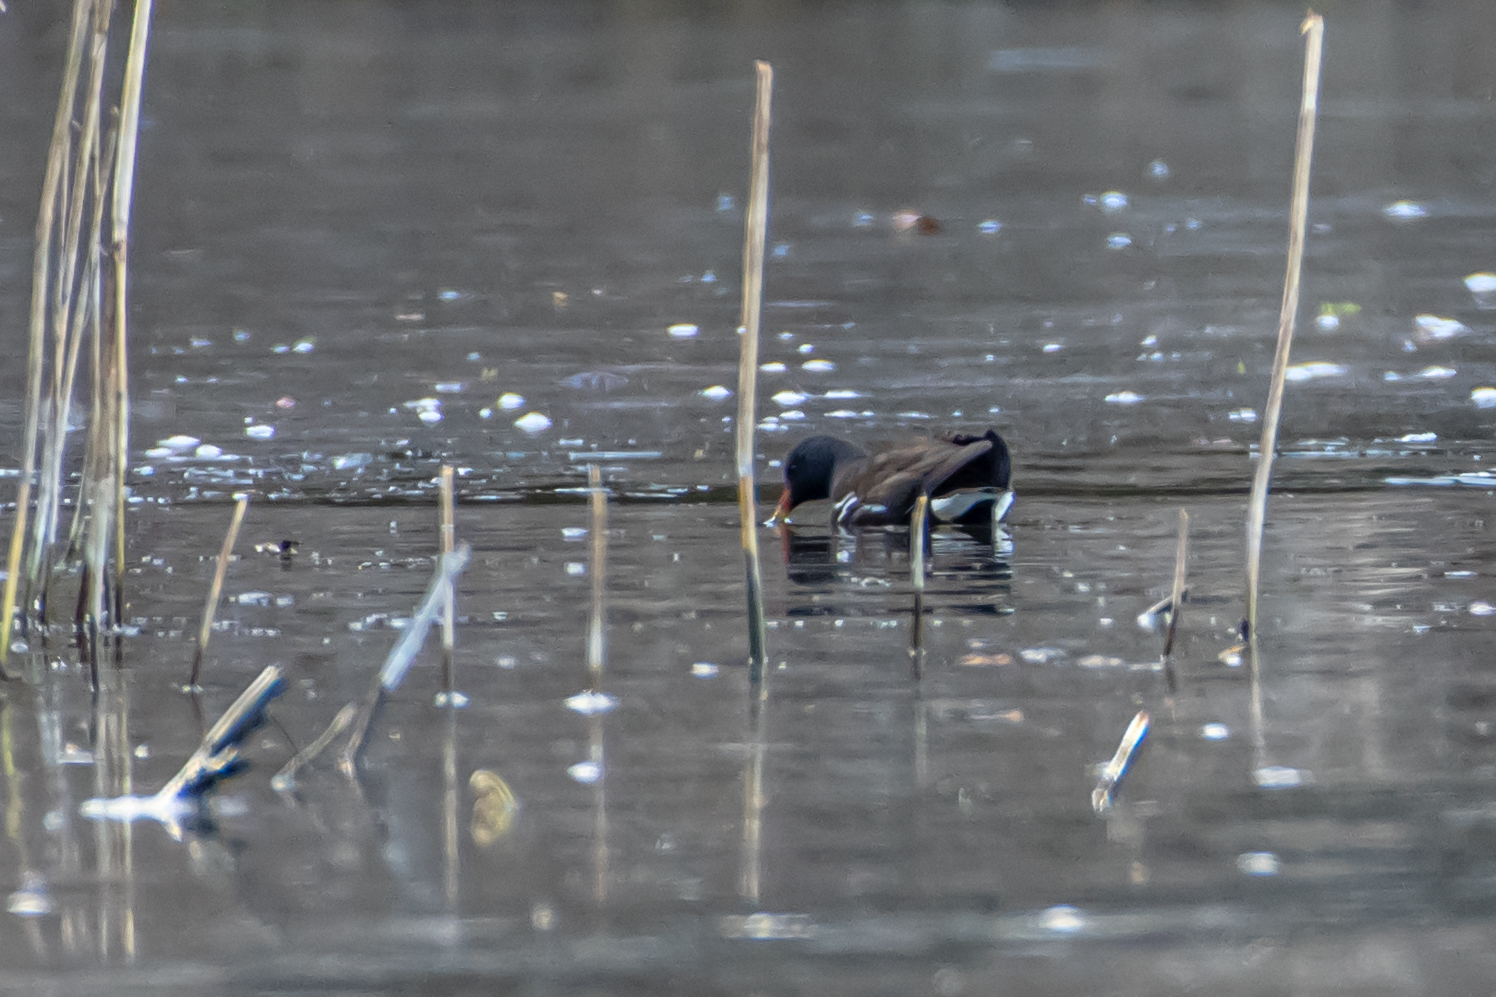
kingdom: Animalia
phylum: Chordata
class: Aves
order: Gruiformes
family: Rallidae
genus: Gallinula
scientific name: Gallinula chloropus
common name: Common moorhen
